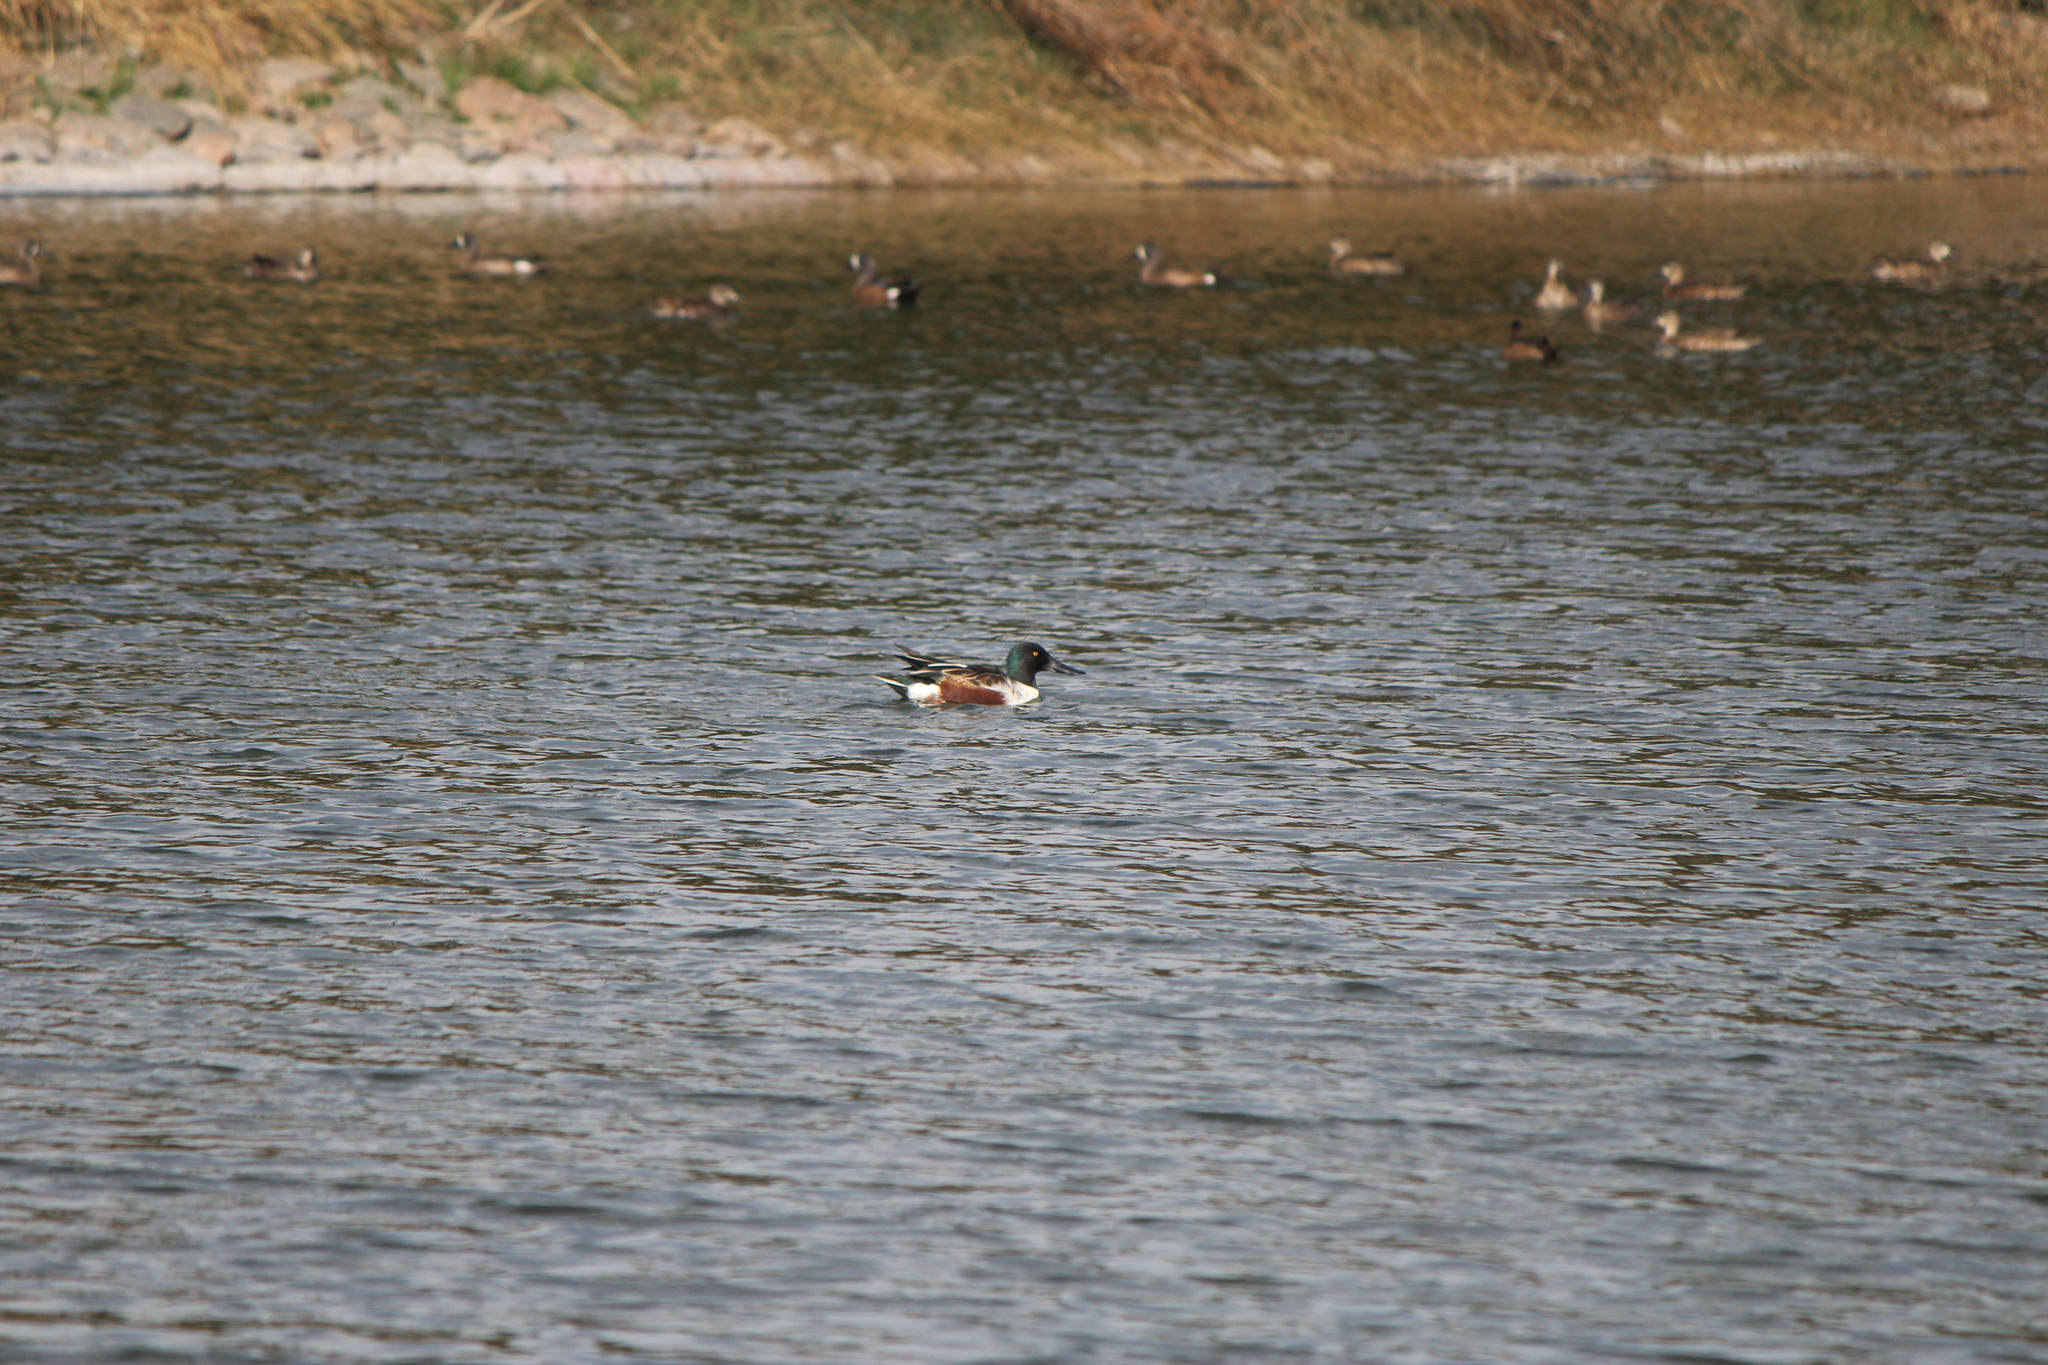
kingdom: Animalia
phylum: Chordata
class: Aves
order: Anseriformes
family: Anatidae
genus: Spatula
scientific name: Spatula clypeata
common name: Northern shoveler
